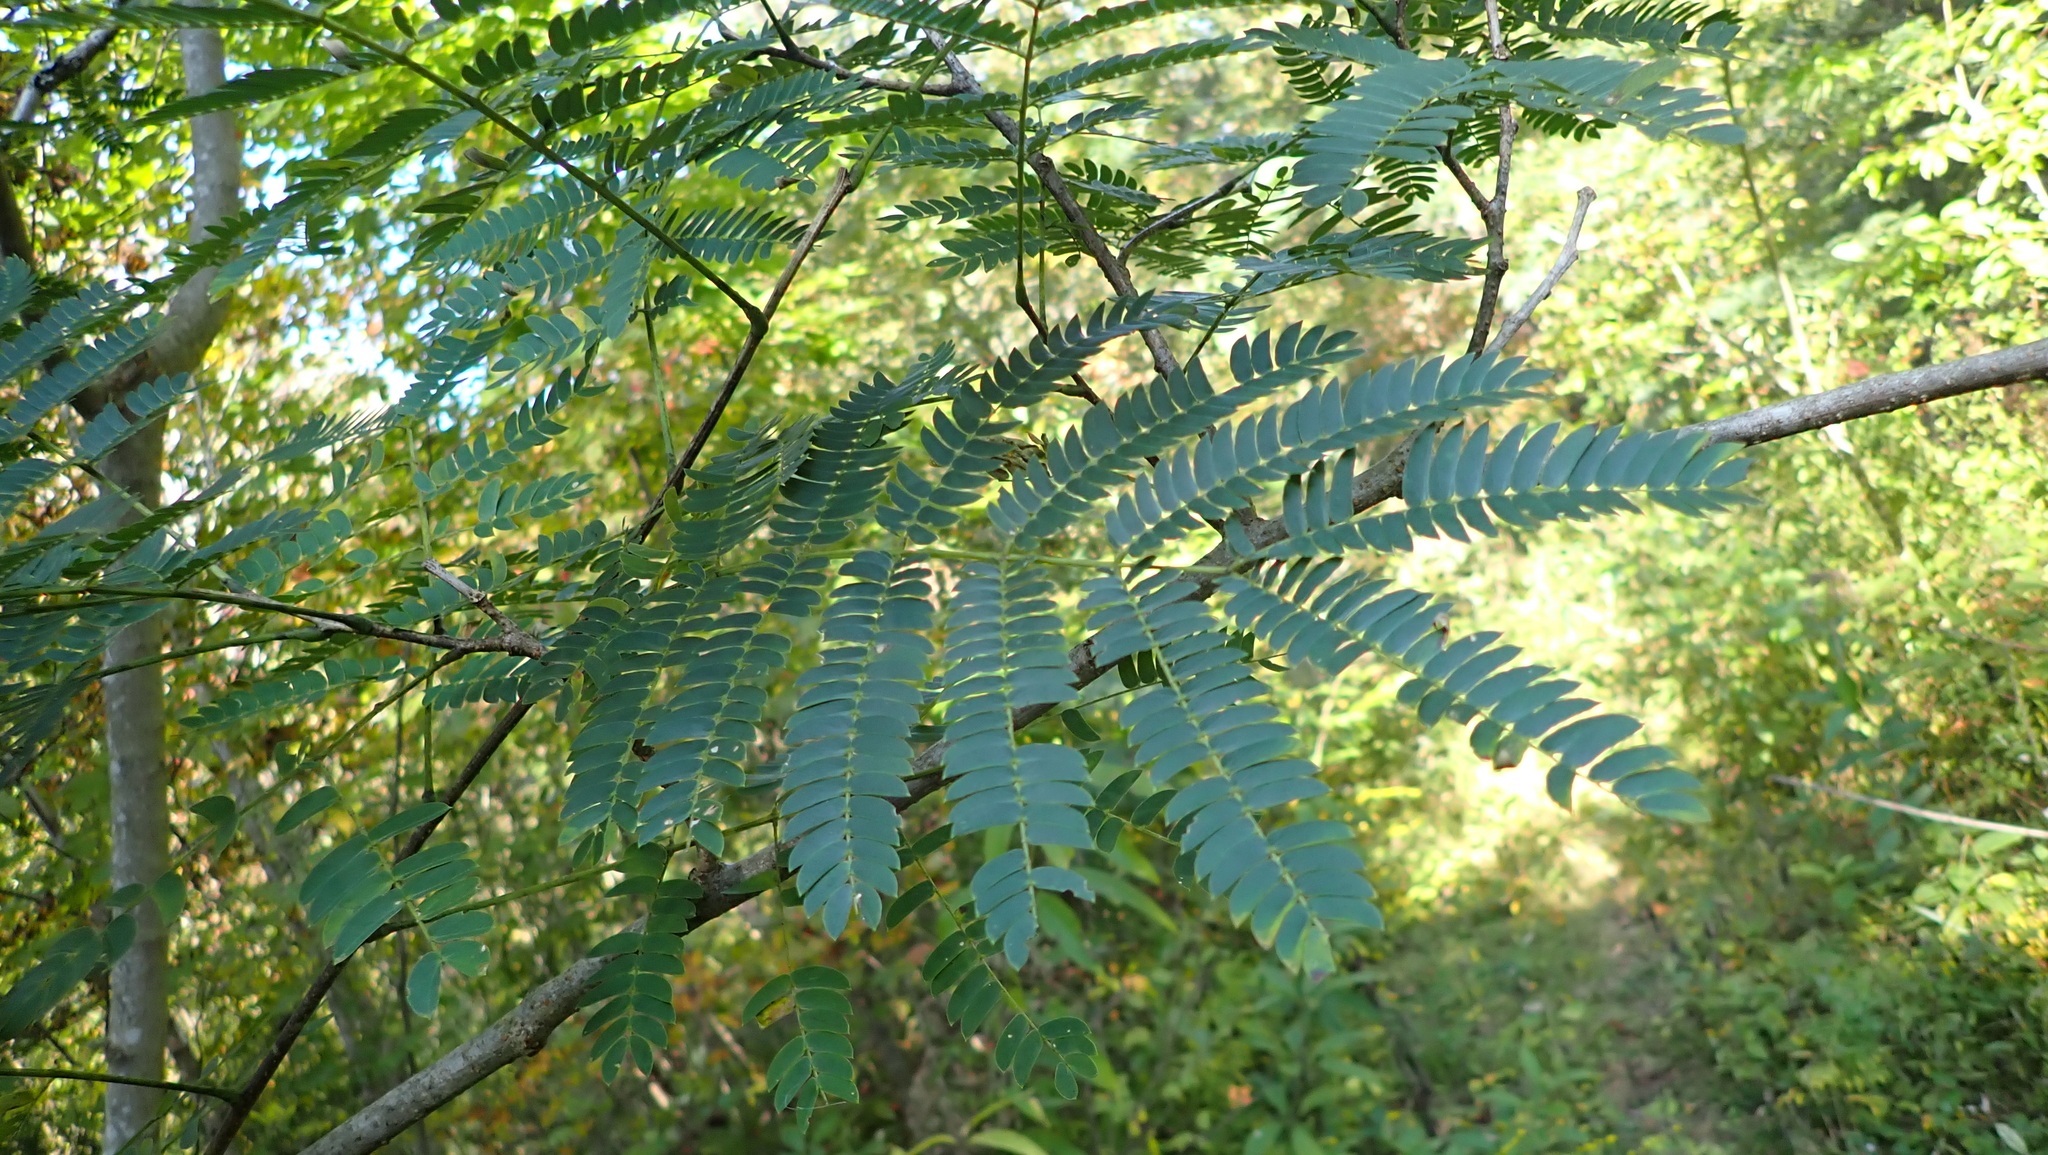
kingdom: Plantae
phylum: Tracheophyta
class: Magnoliopsida
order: Fabales
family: Fabaceae
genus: Albizia
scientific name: Albizia julibrissin
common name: Silktree
